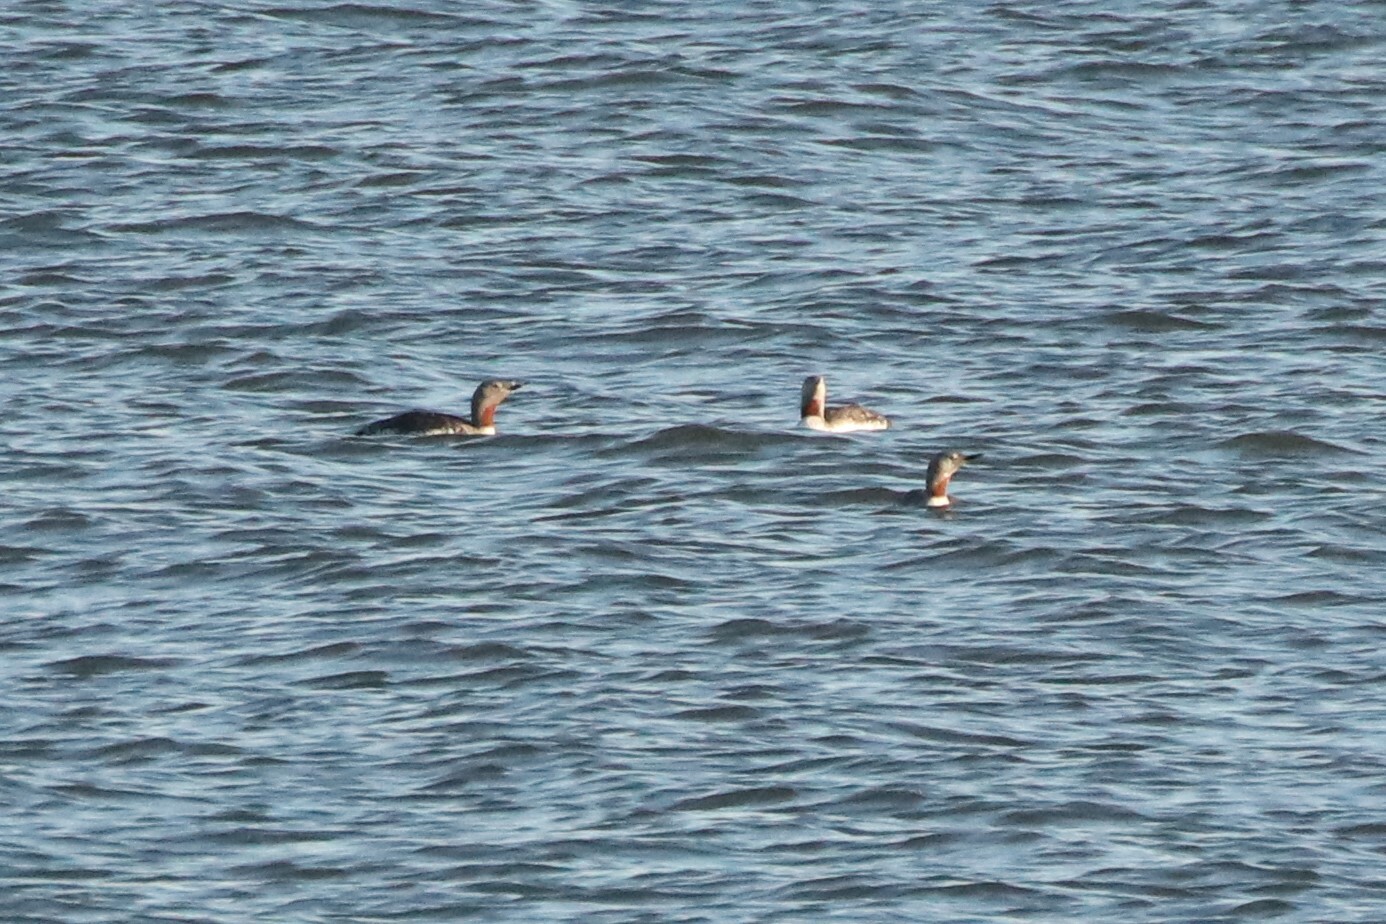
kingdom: Animalia
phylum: Chordata
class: Aves
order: Gaviiformes
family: Gaviidae
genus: Gavia
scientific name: Gavia stellata
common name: Red-throated loon
